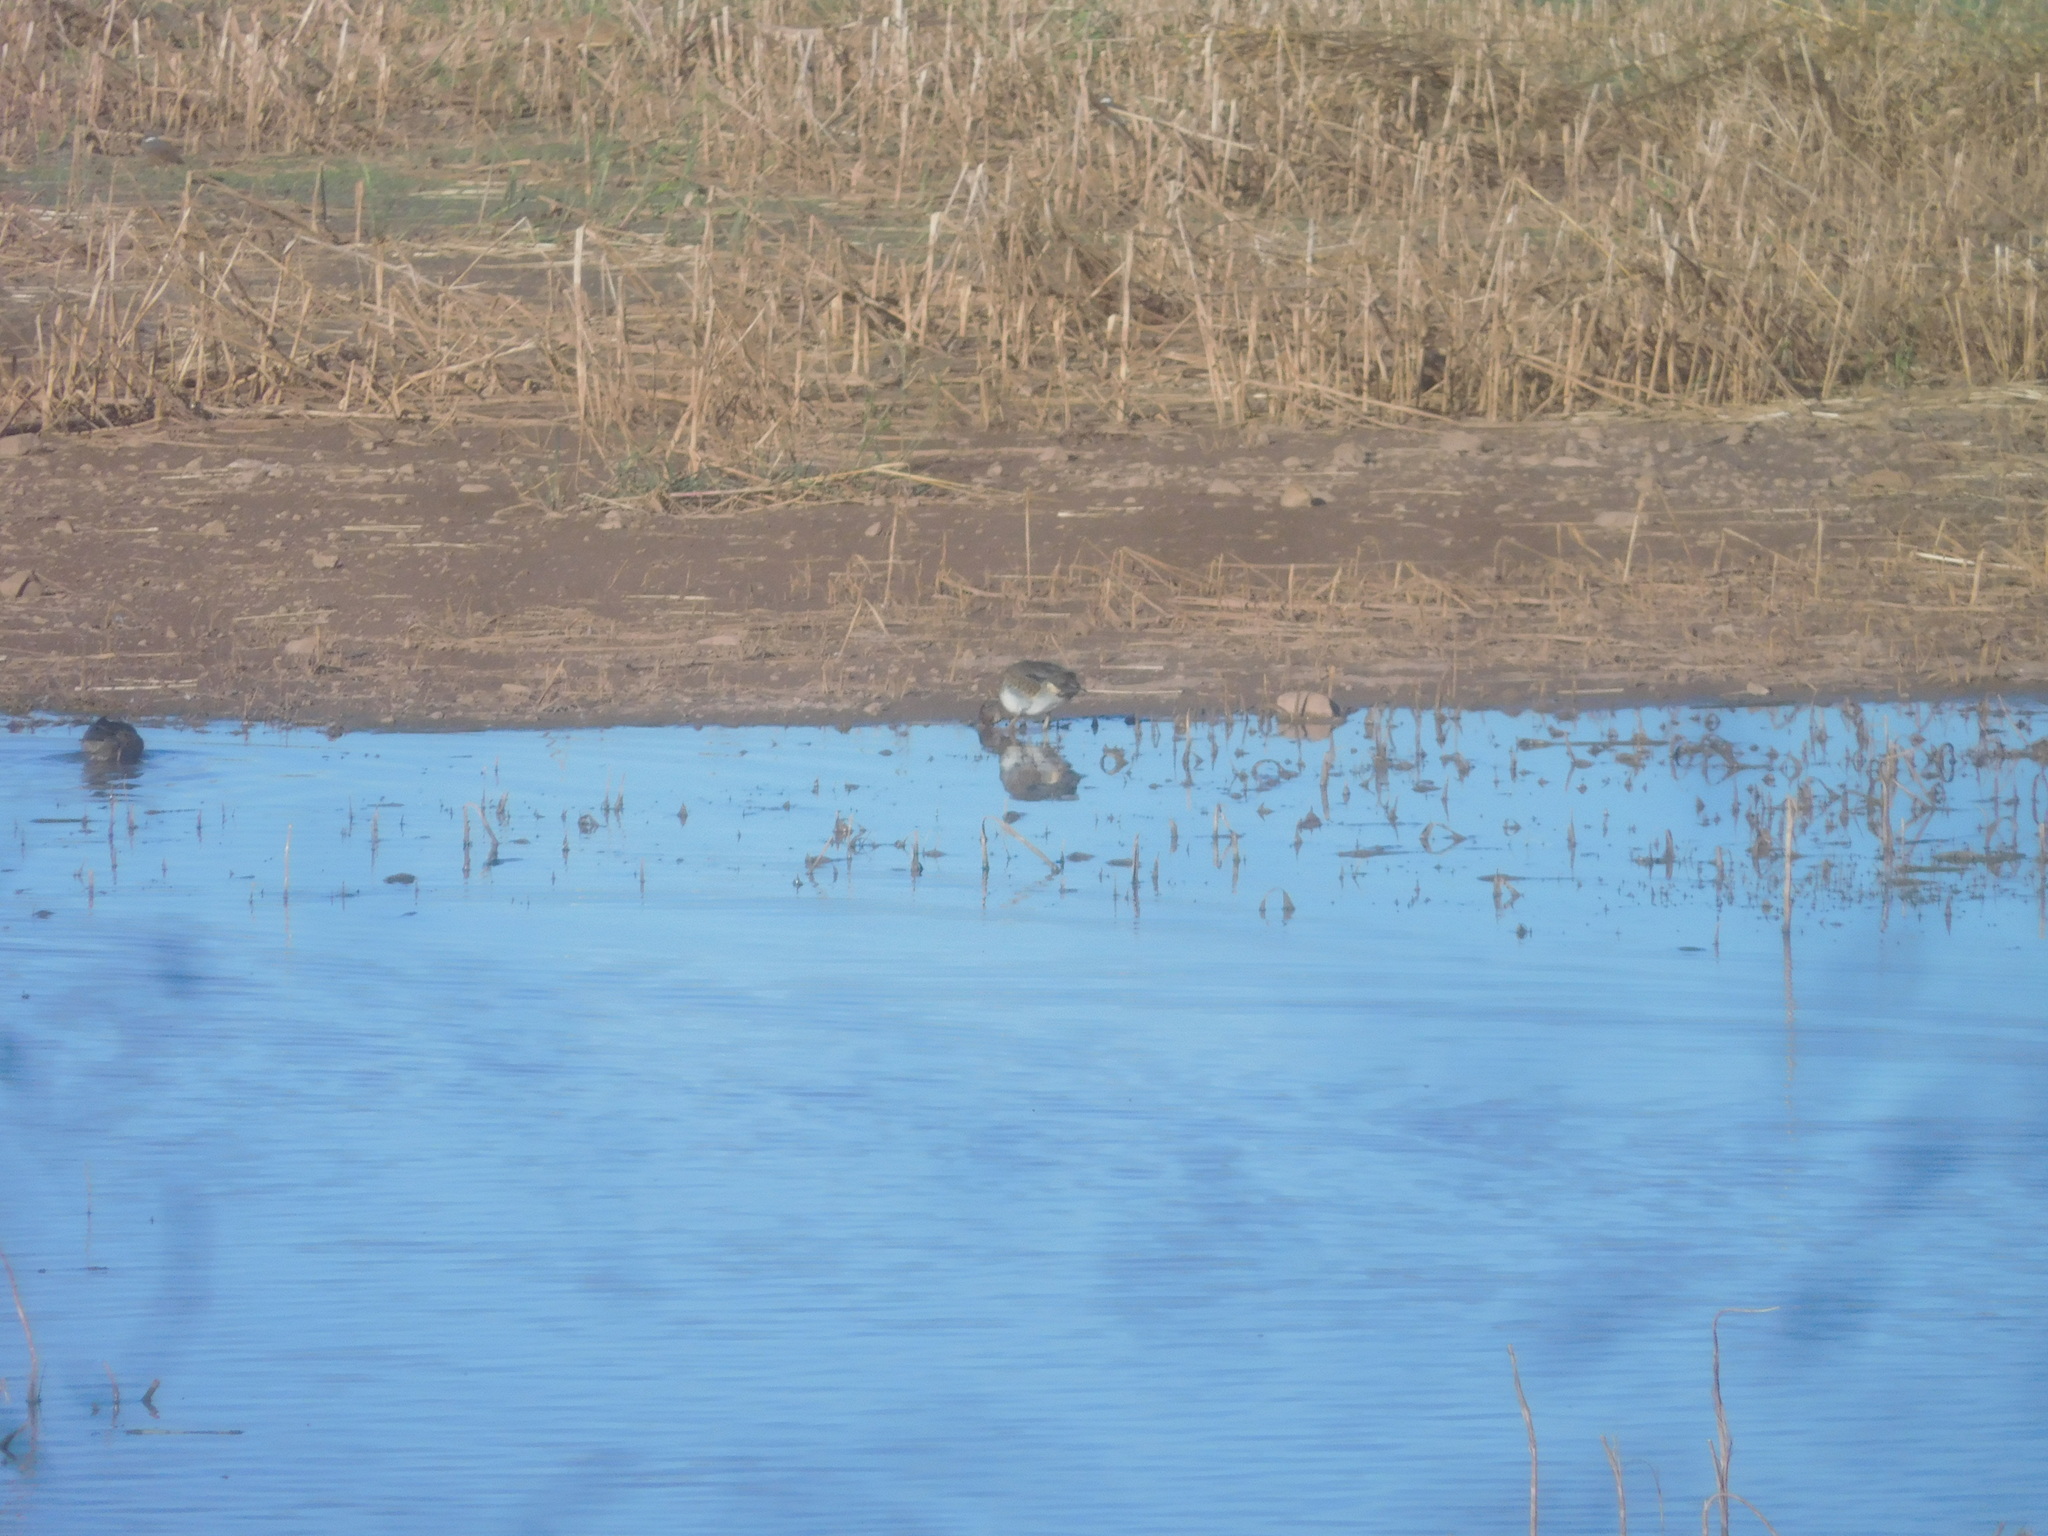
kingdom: Animalia
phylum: Chordata
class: Aves
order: Anseriformes
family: Anatidae
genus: Anas
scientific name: Anas crecca
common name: Eurasian teal
